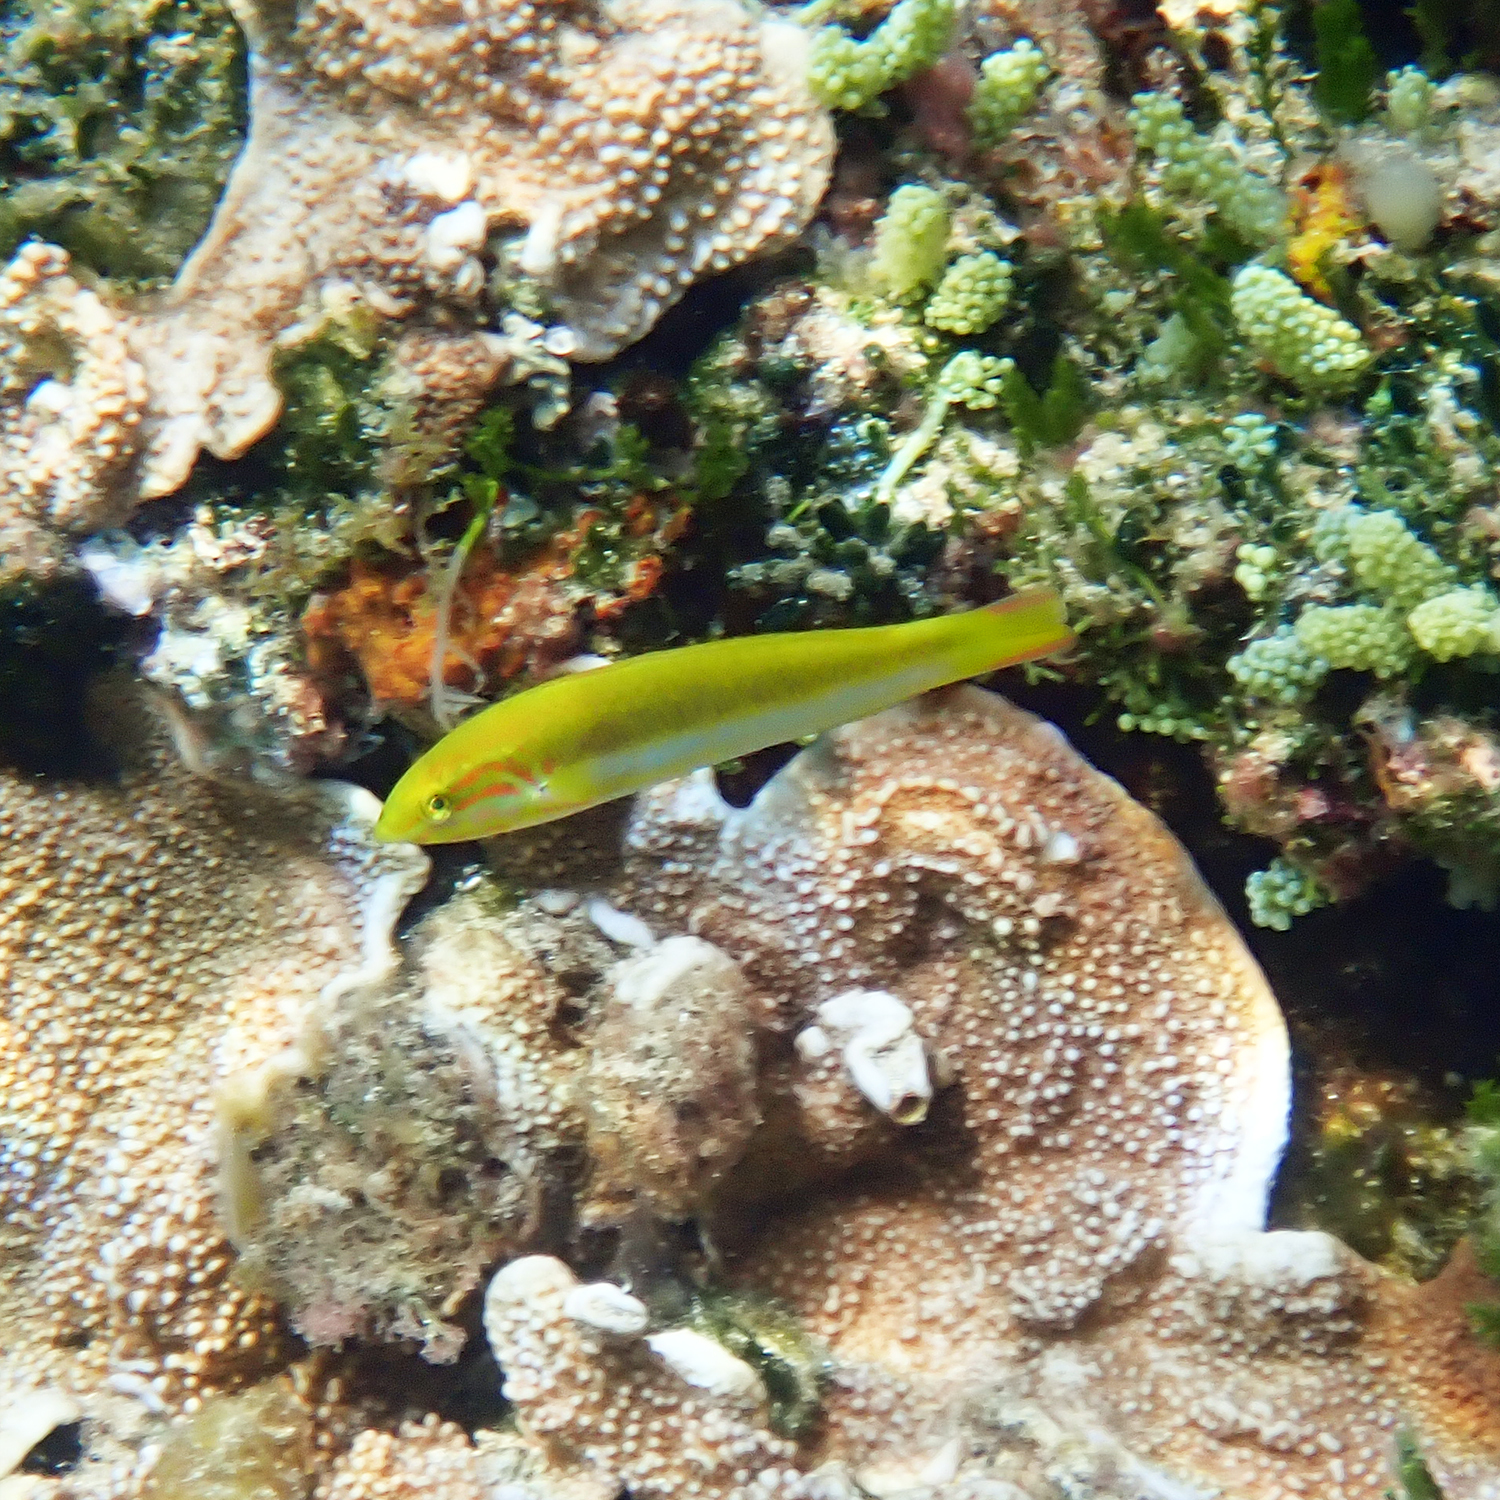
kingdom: Animalia
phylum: Chordata
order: Perciformes
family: Labridae
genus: Thalassoma
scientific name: Thalassoma lutescens
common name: Green moon wrasse
